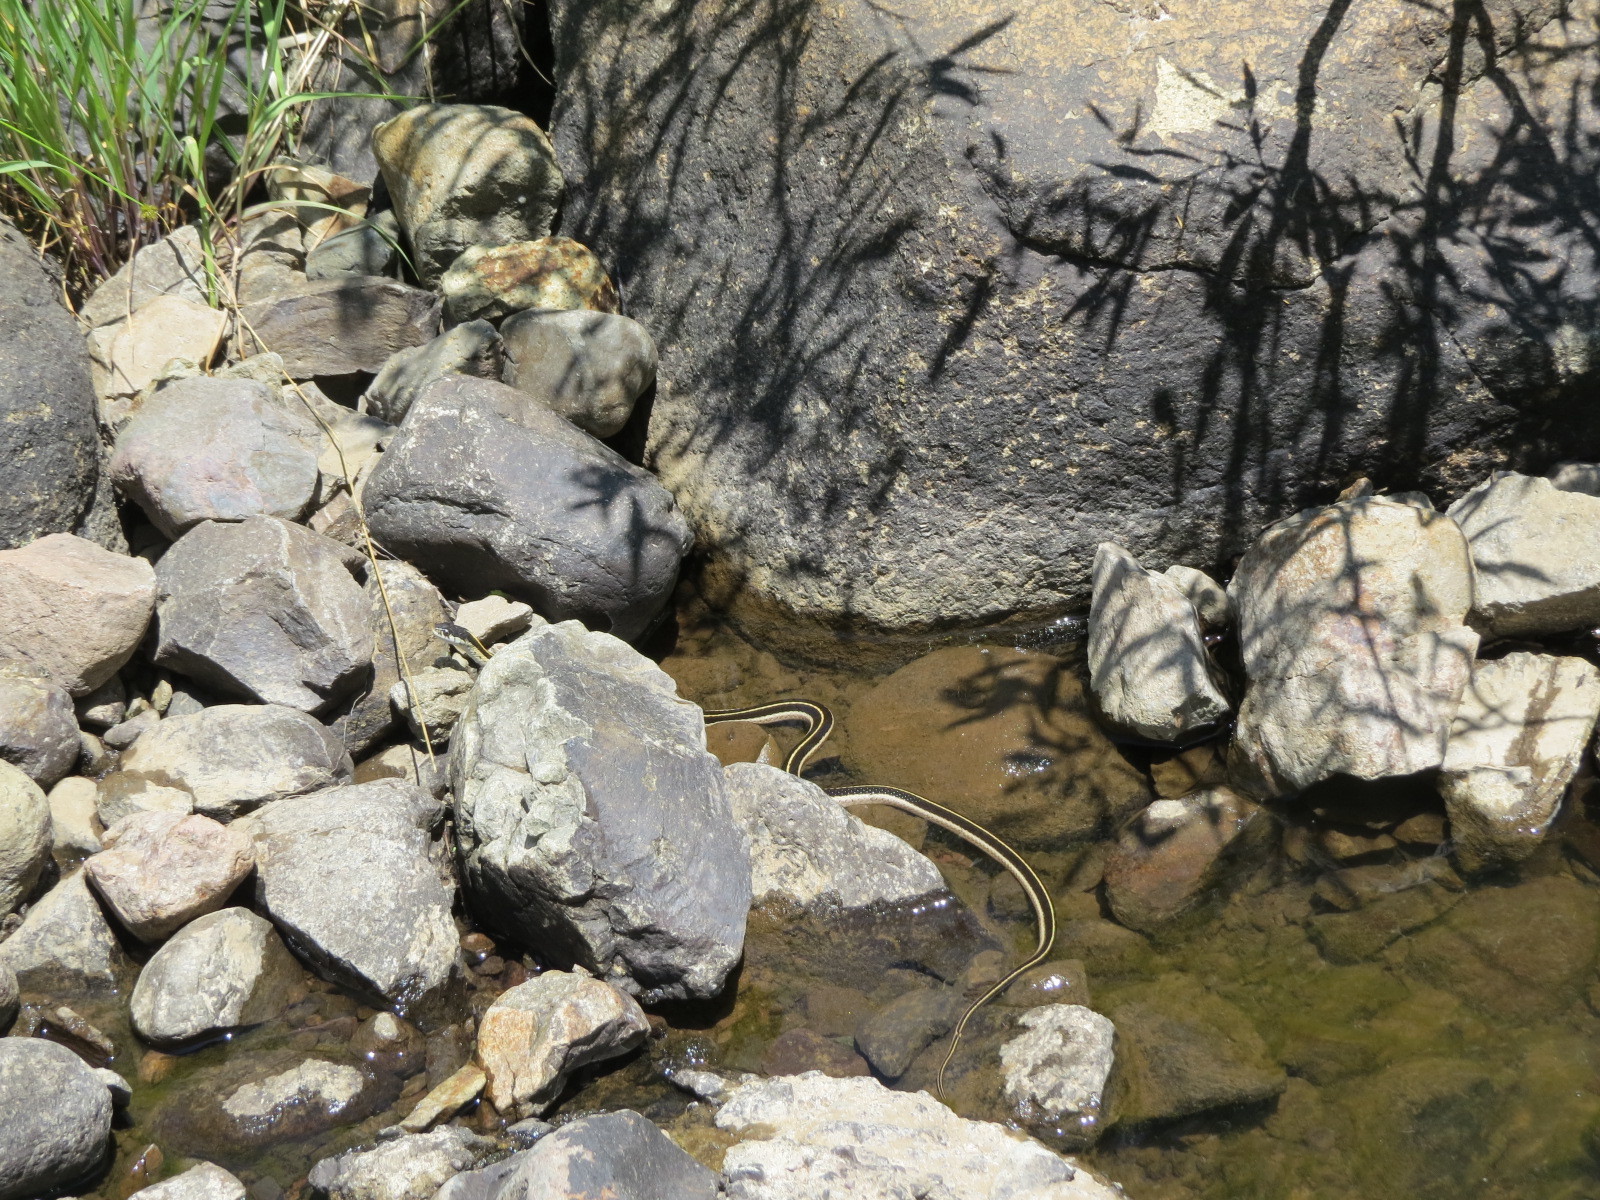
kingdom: Animalia
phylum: Chordata
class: Squamata
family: Colubridae
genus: Thamnophis
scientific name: Thamnophis elegans
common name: Western terrestrial garter snake
